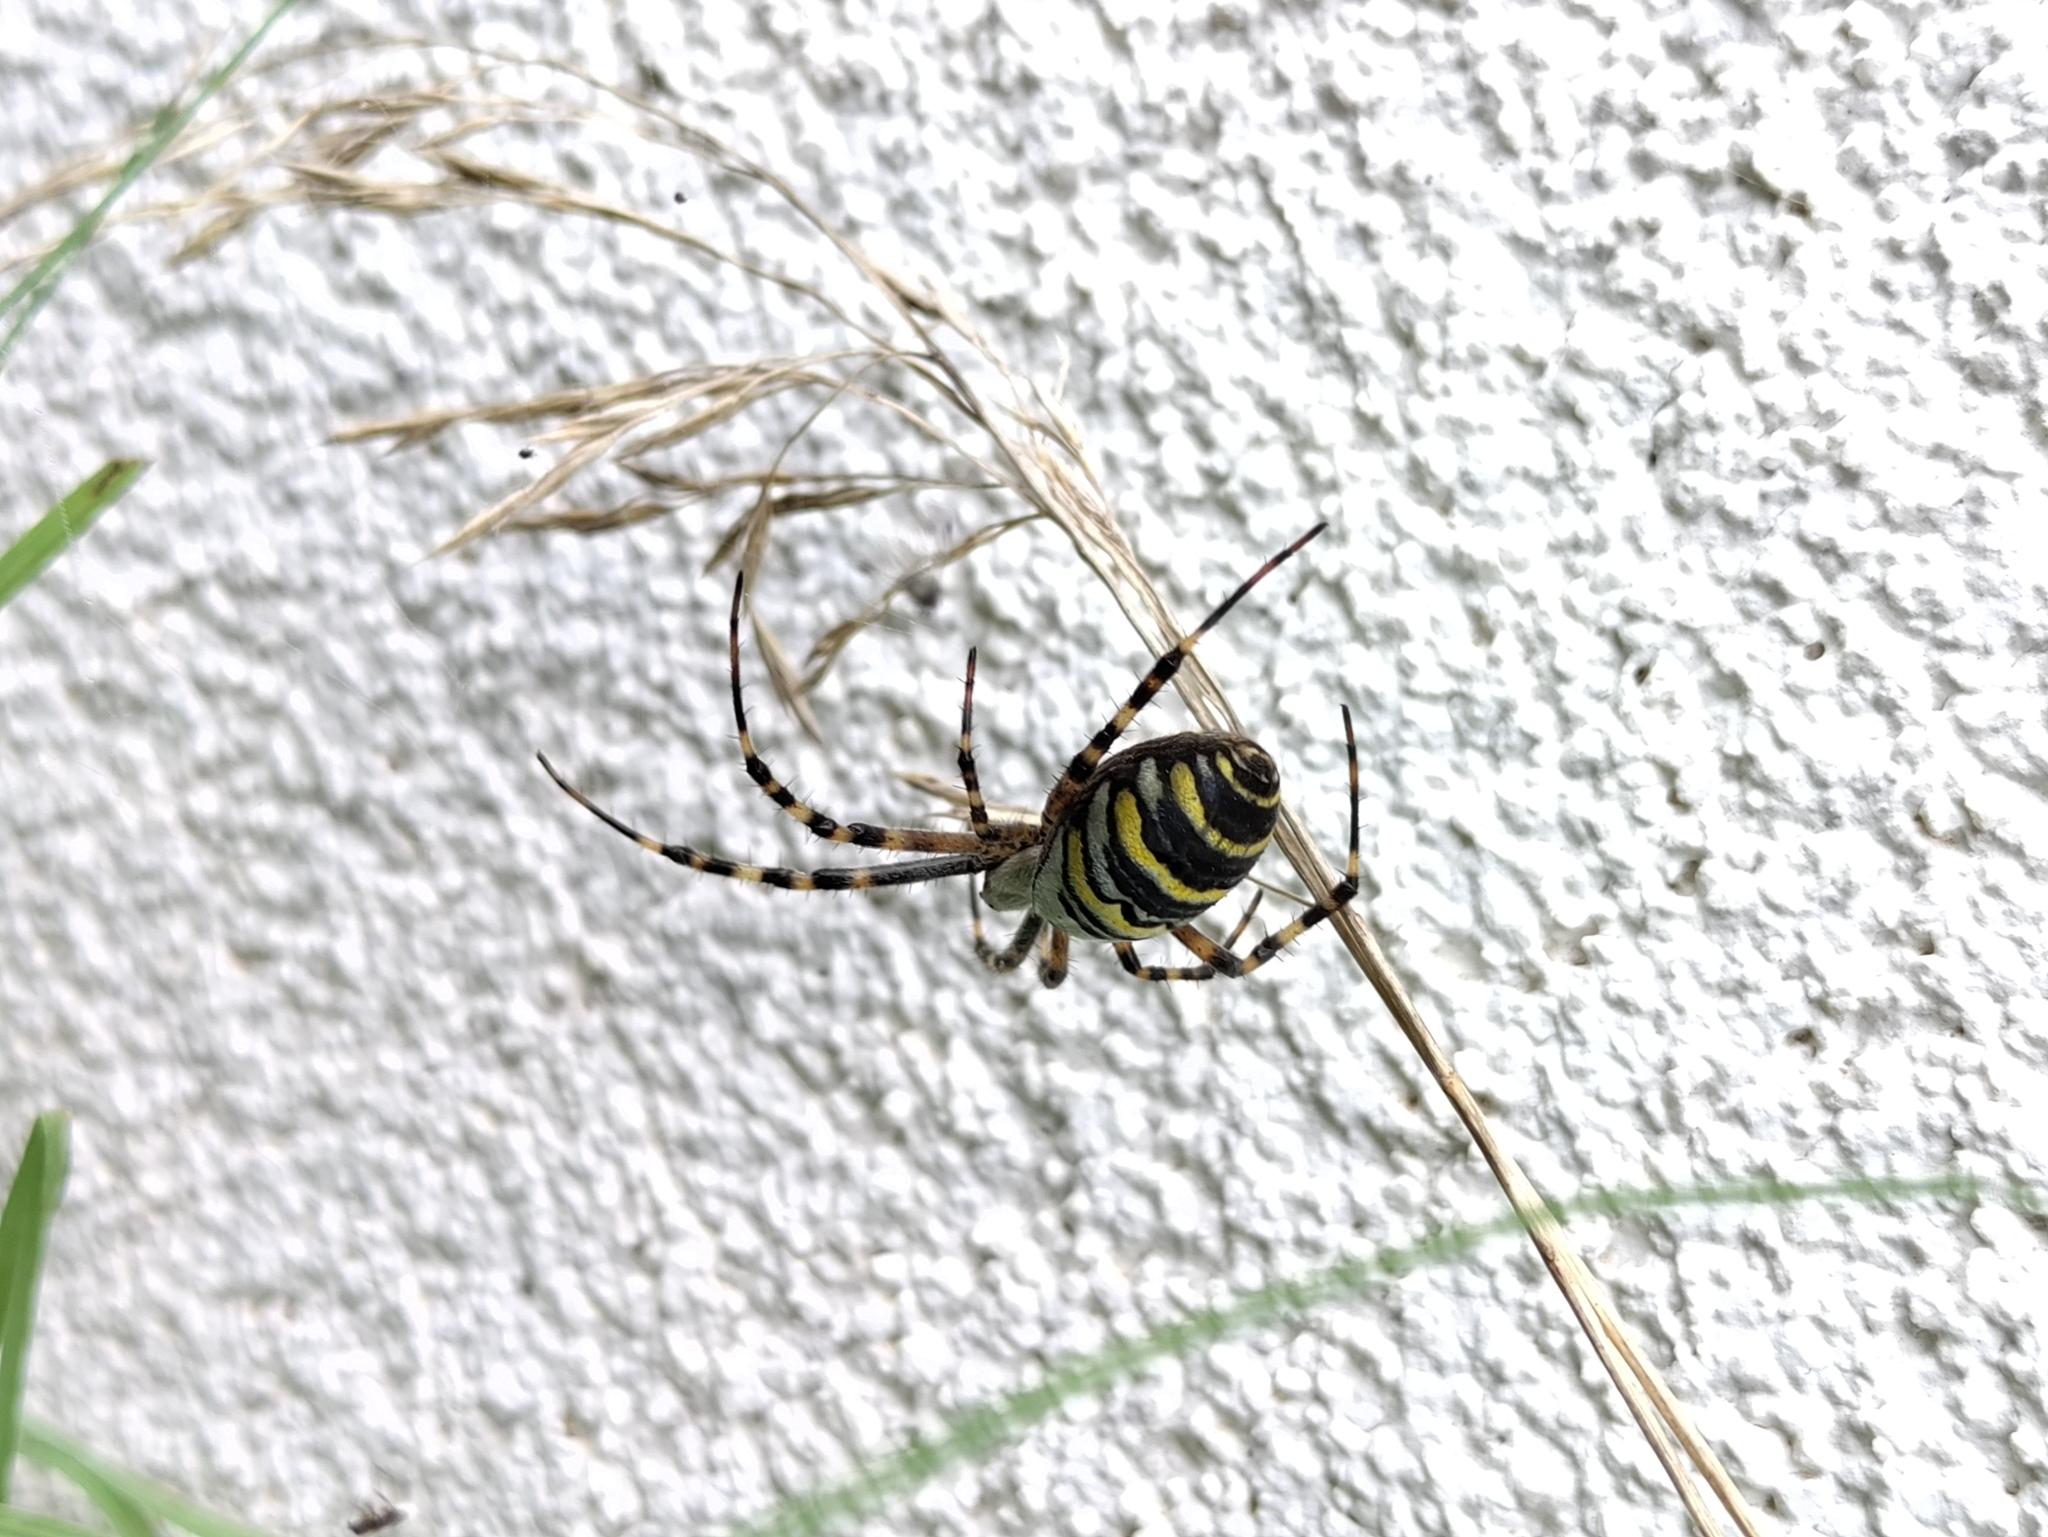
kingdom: Animalia
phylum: Arthropoda
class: Arachnida
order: Araneae
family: Araneidae
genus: Argiope
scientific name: Argiope bruennichi
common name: Wasp spider
